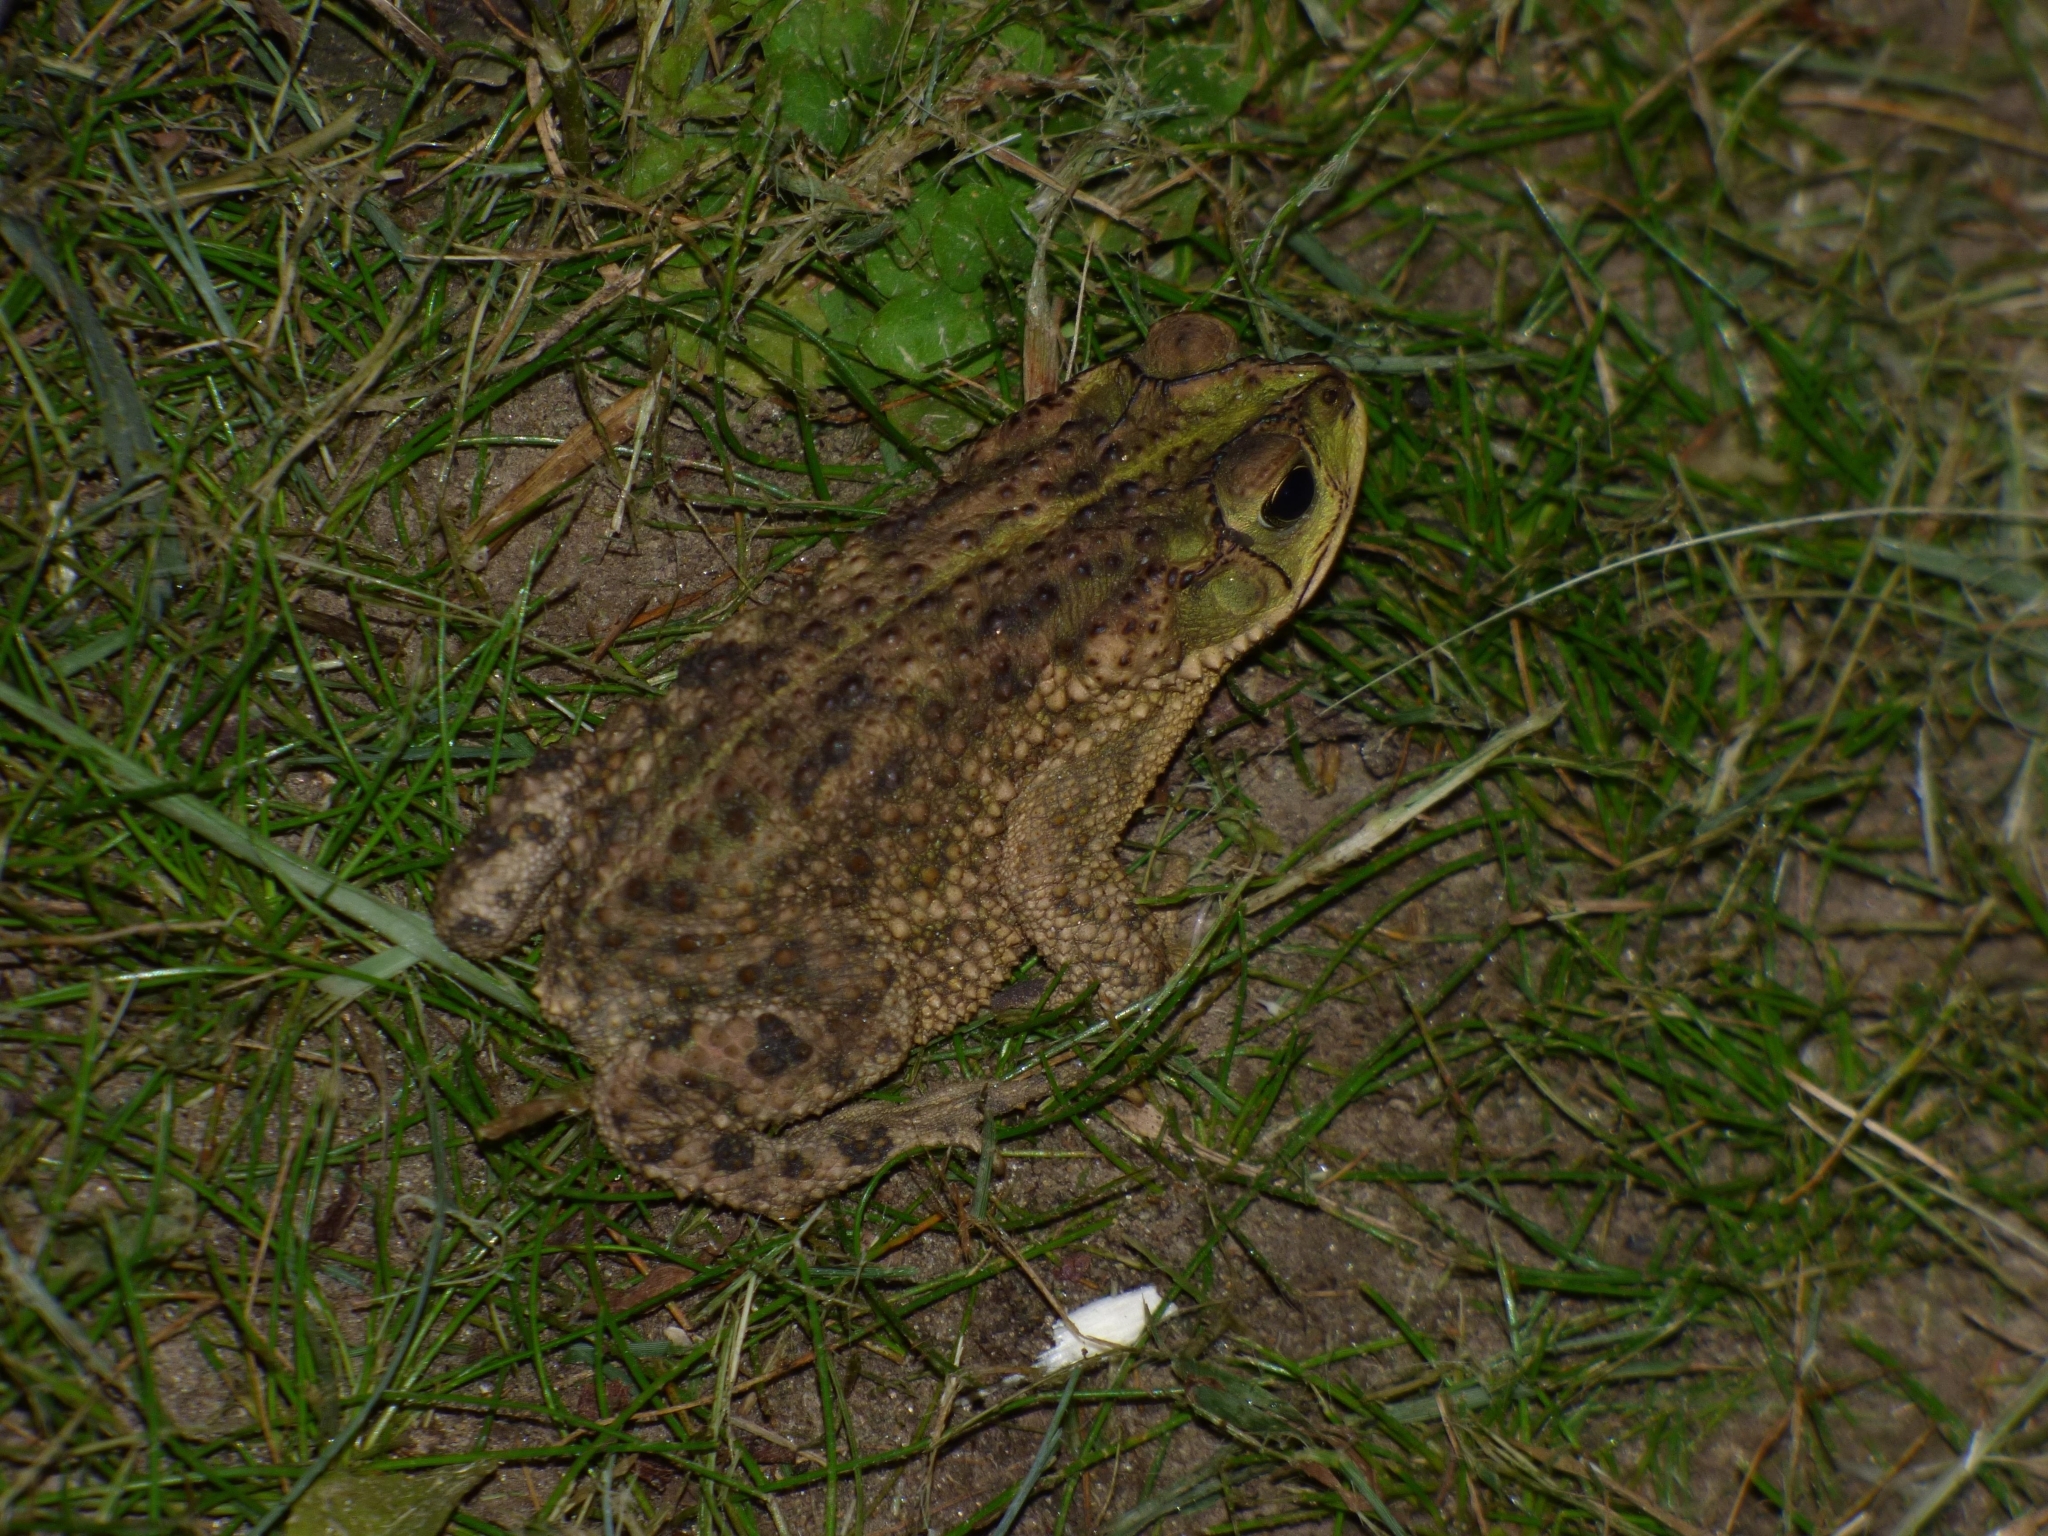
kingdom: Animalia
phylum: Chordata
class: Amphibia
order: Anura
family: Bufonidae
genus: Rhinella
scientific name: Rhinella dorbignyi
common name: D´orbigny’s toad
